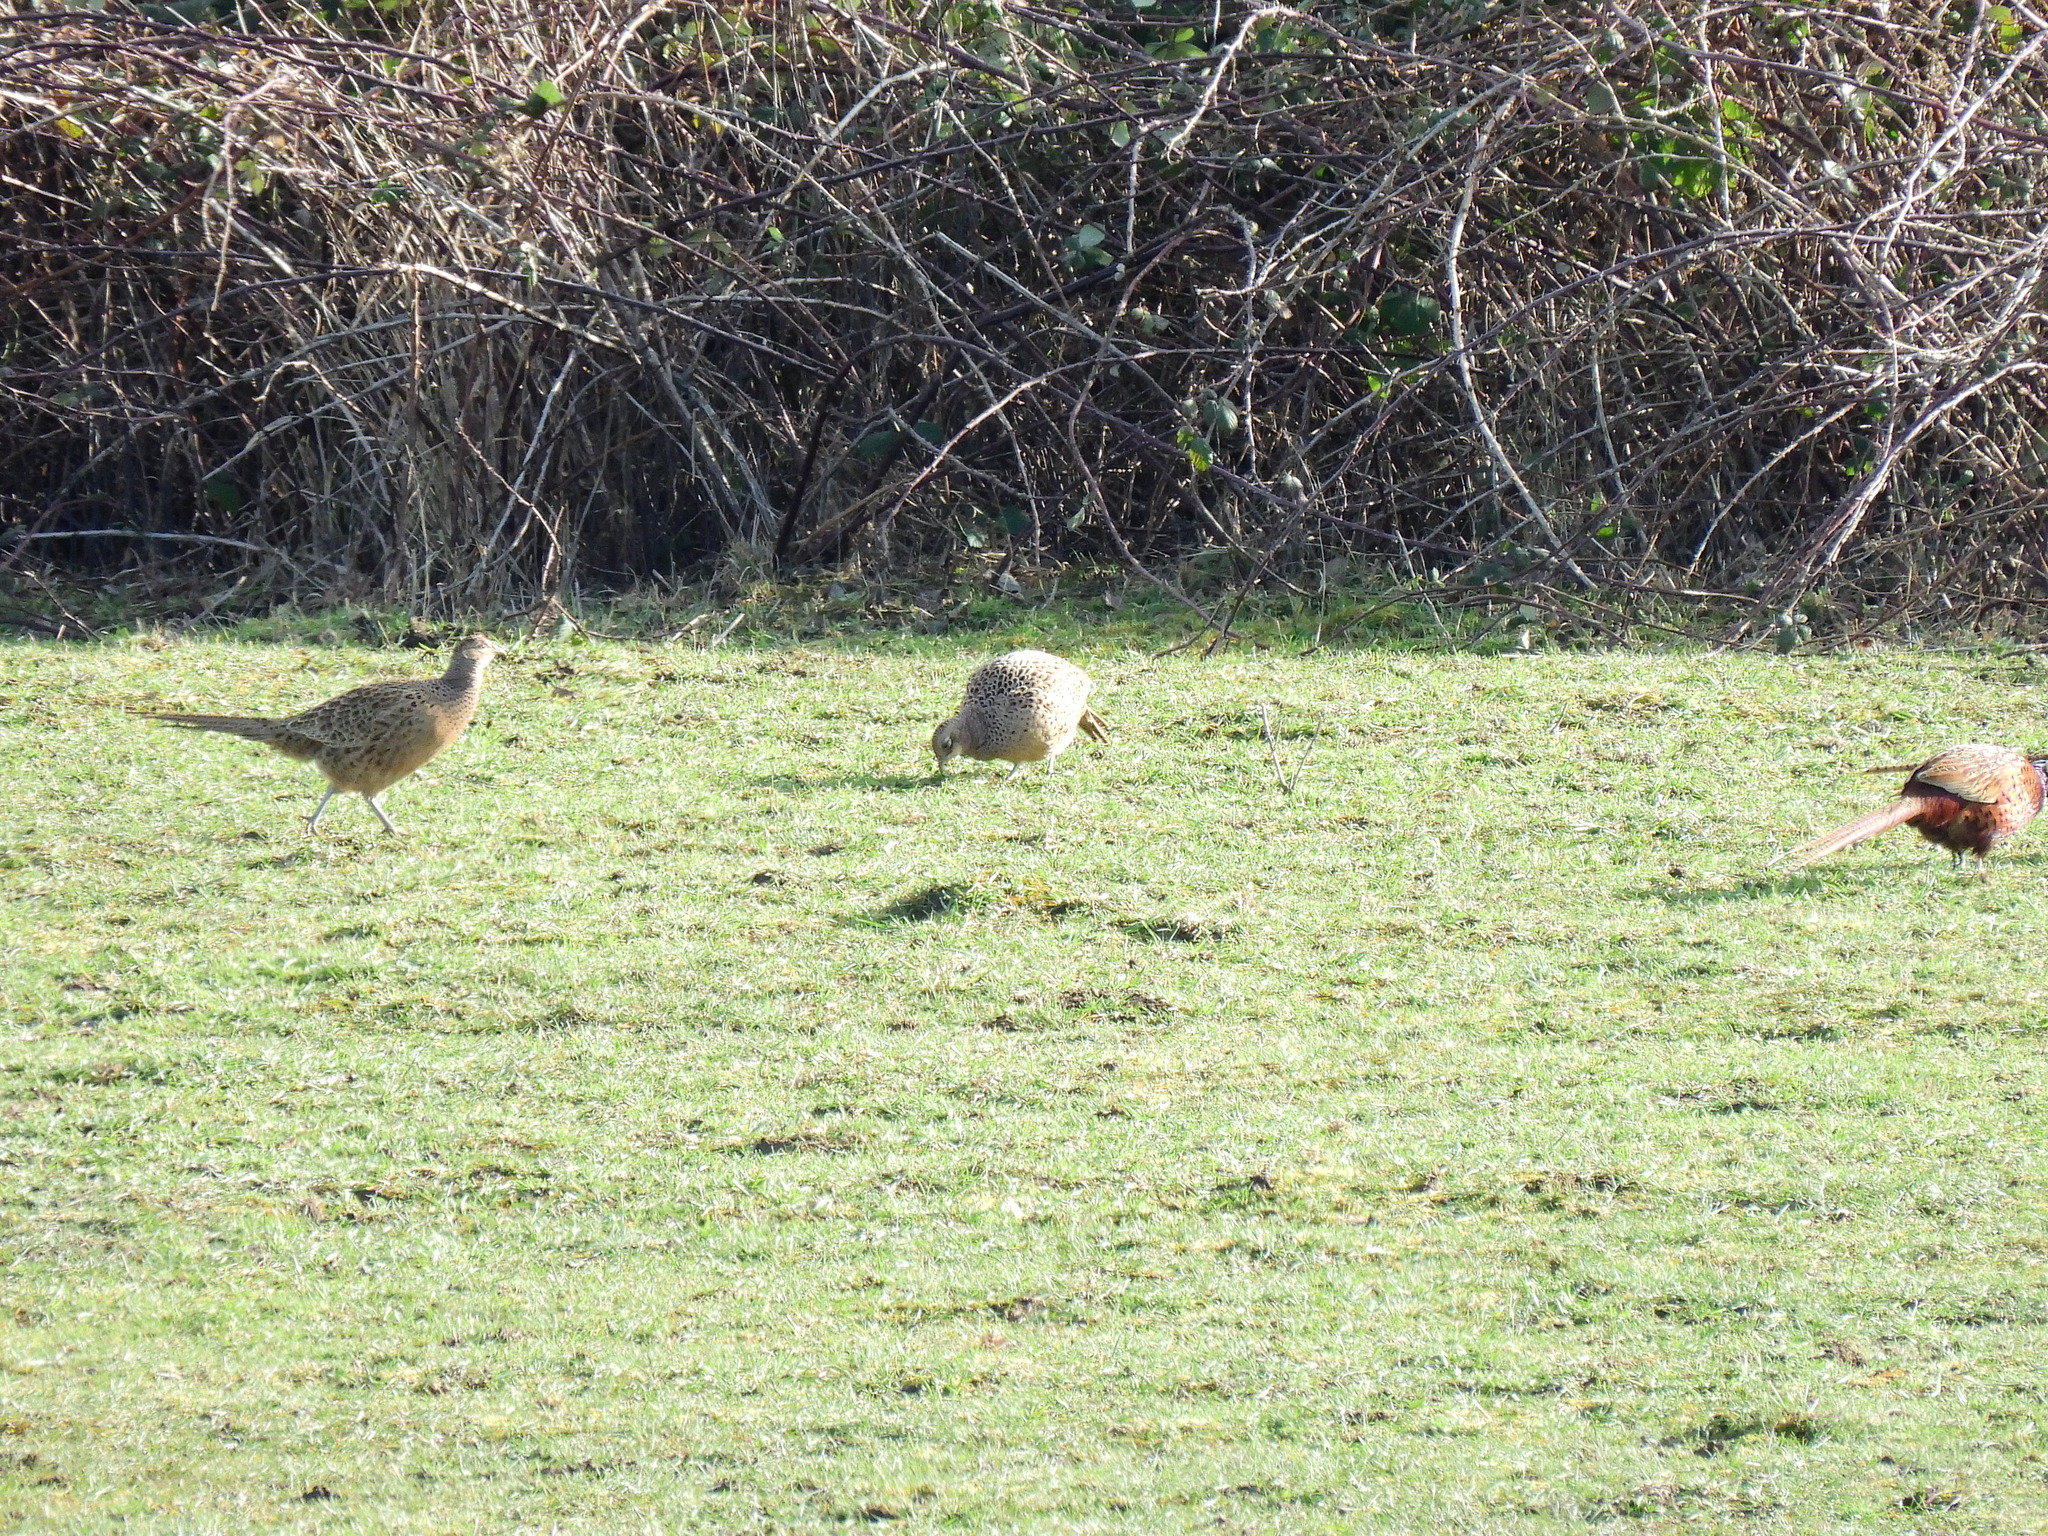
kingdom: Animalia
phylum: Chordata
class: Aves
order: Galliformes
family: Phasianidae
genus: Phasianus
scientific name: Phasianus colchicus
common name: Common pheasant
